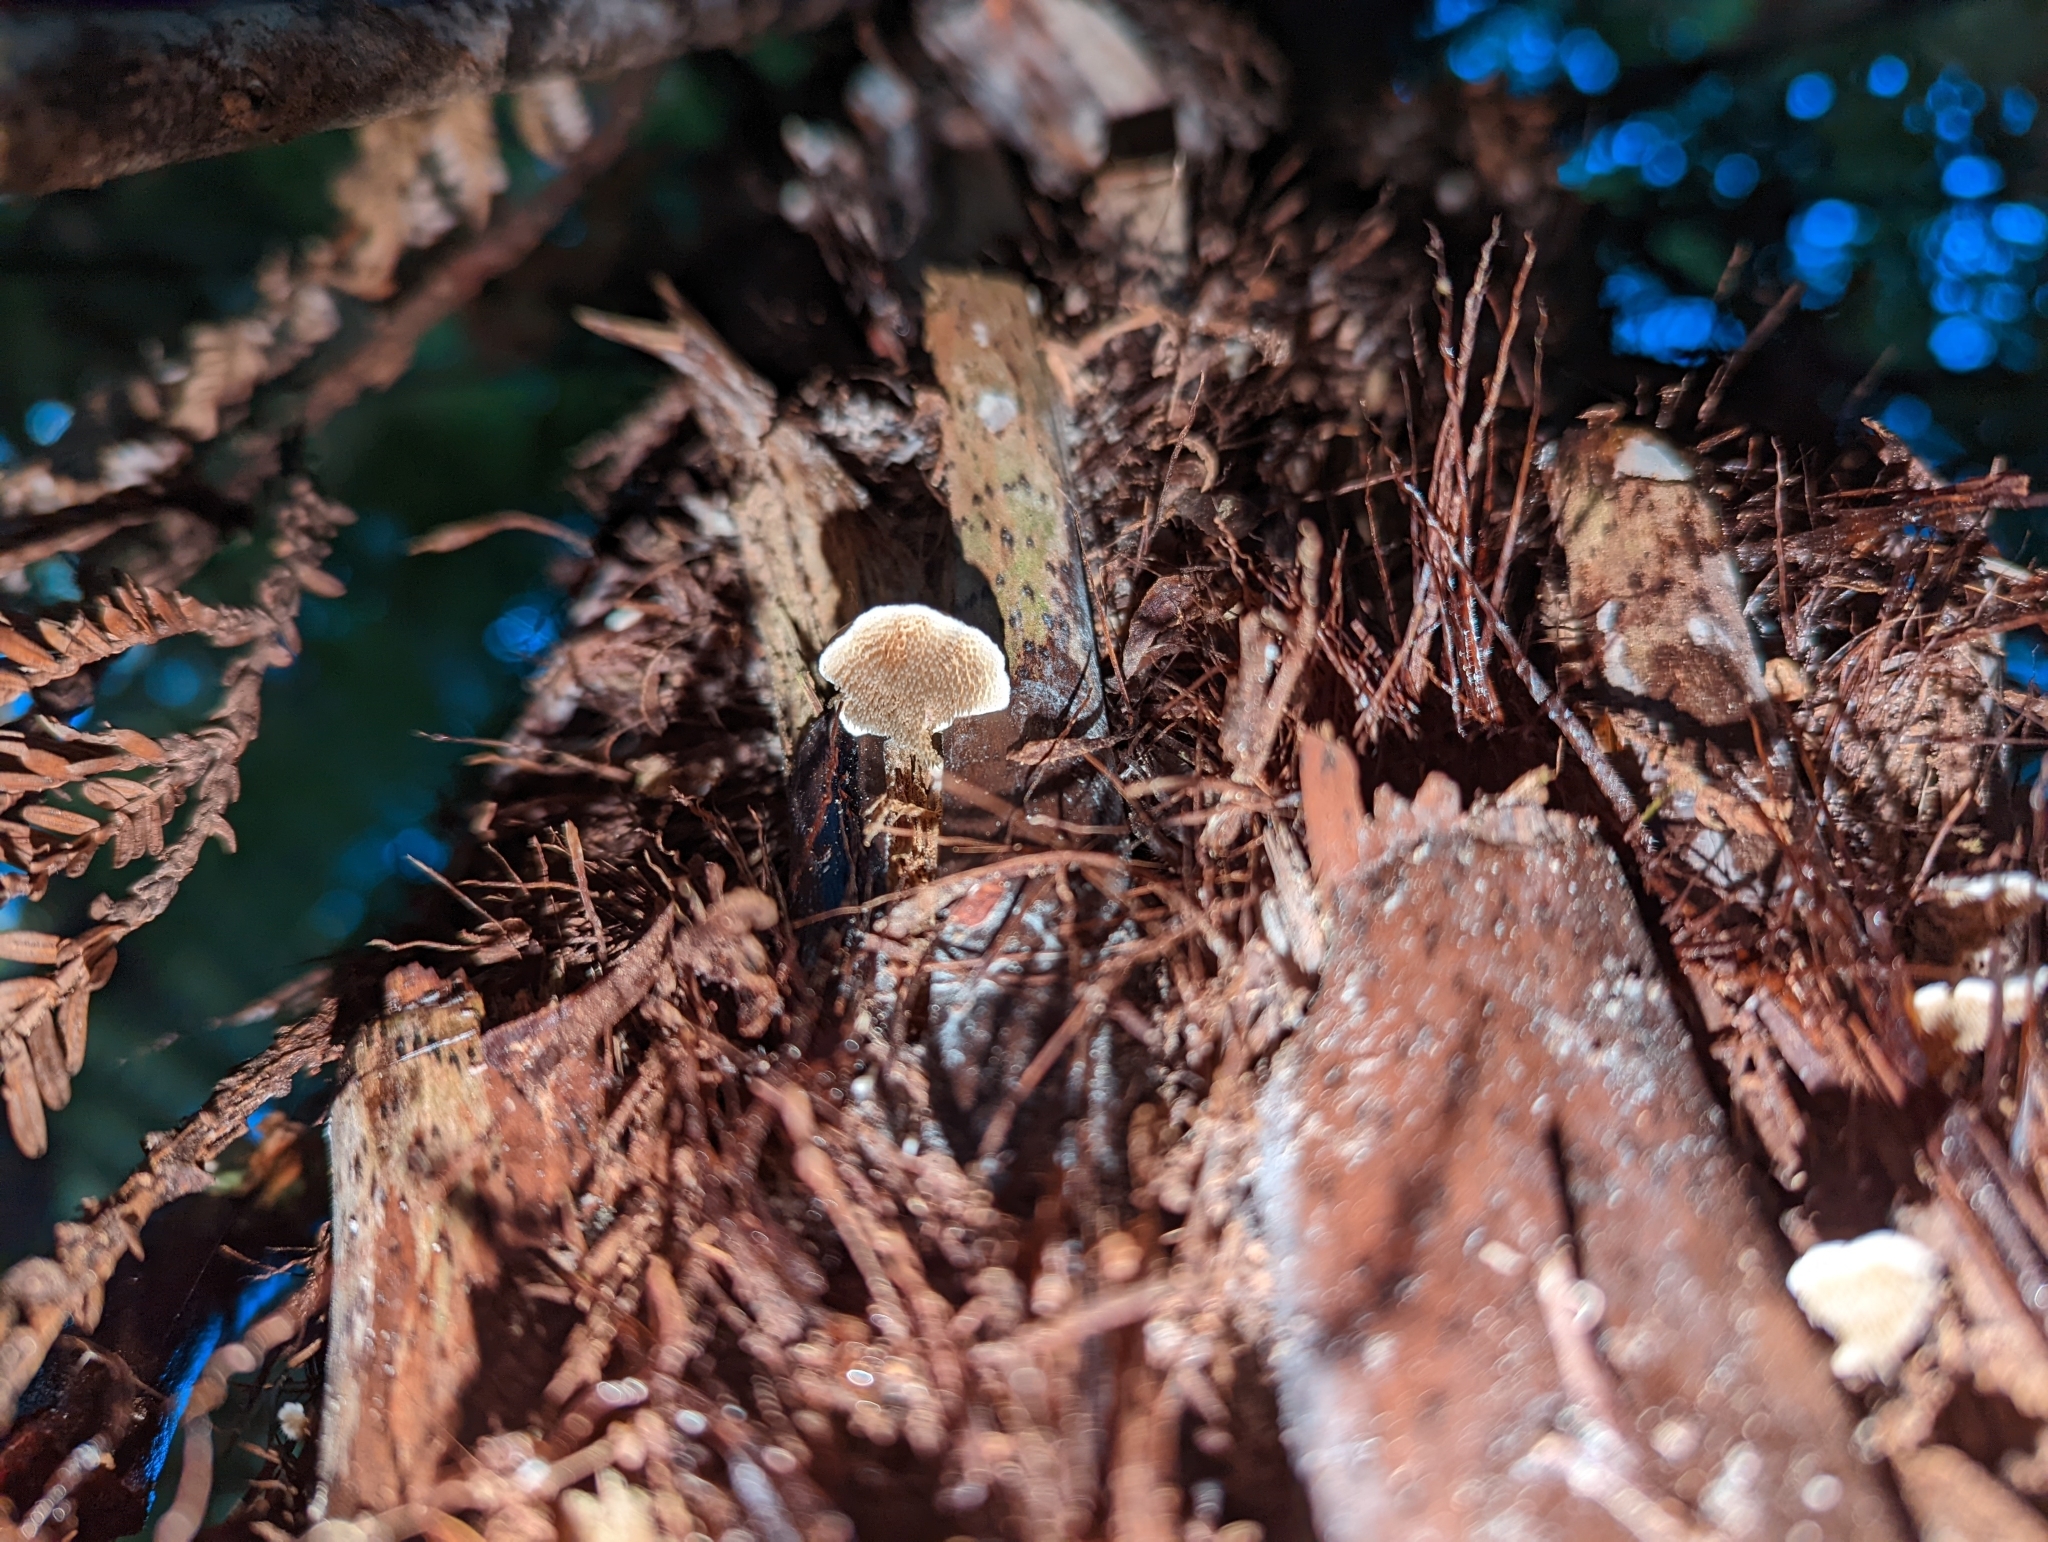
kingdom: Fungi
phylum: Basidiomycota
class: Agaricomycetes
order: Gomphales
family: Clavariadelphaceae
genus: Beenakia
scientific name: Beenakia dacostae
